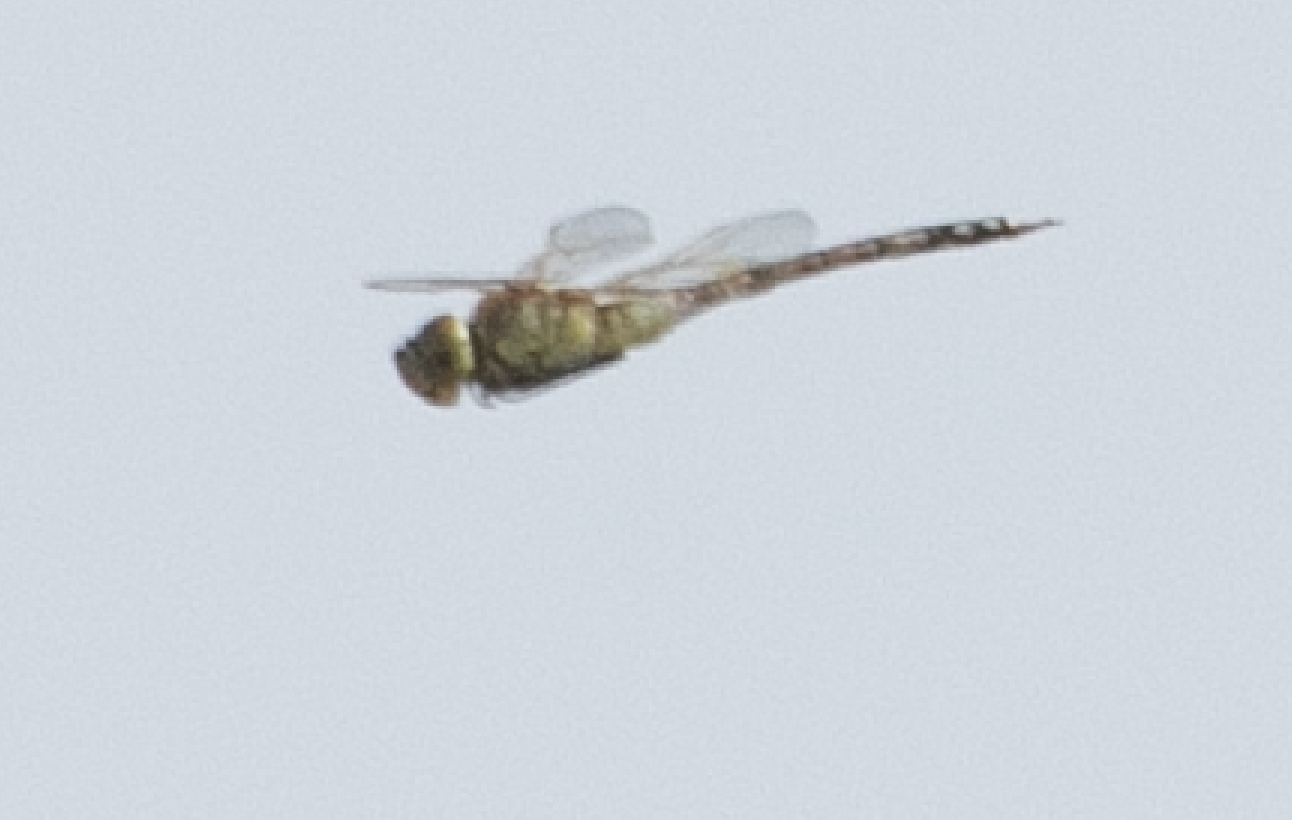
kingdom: Animalia
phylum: Arthropoda
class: Insecta
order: Odonata
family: Aeshnidae
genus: Anax
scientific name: Anax ephippiger
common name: Vagrant emperor
